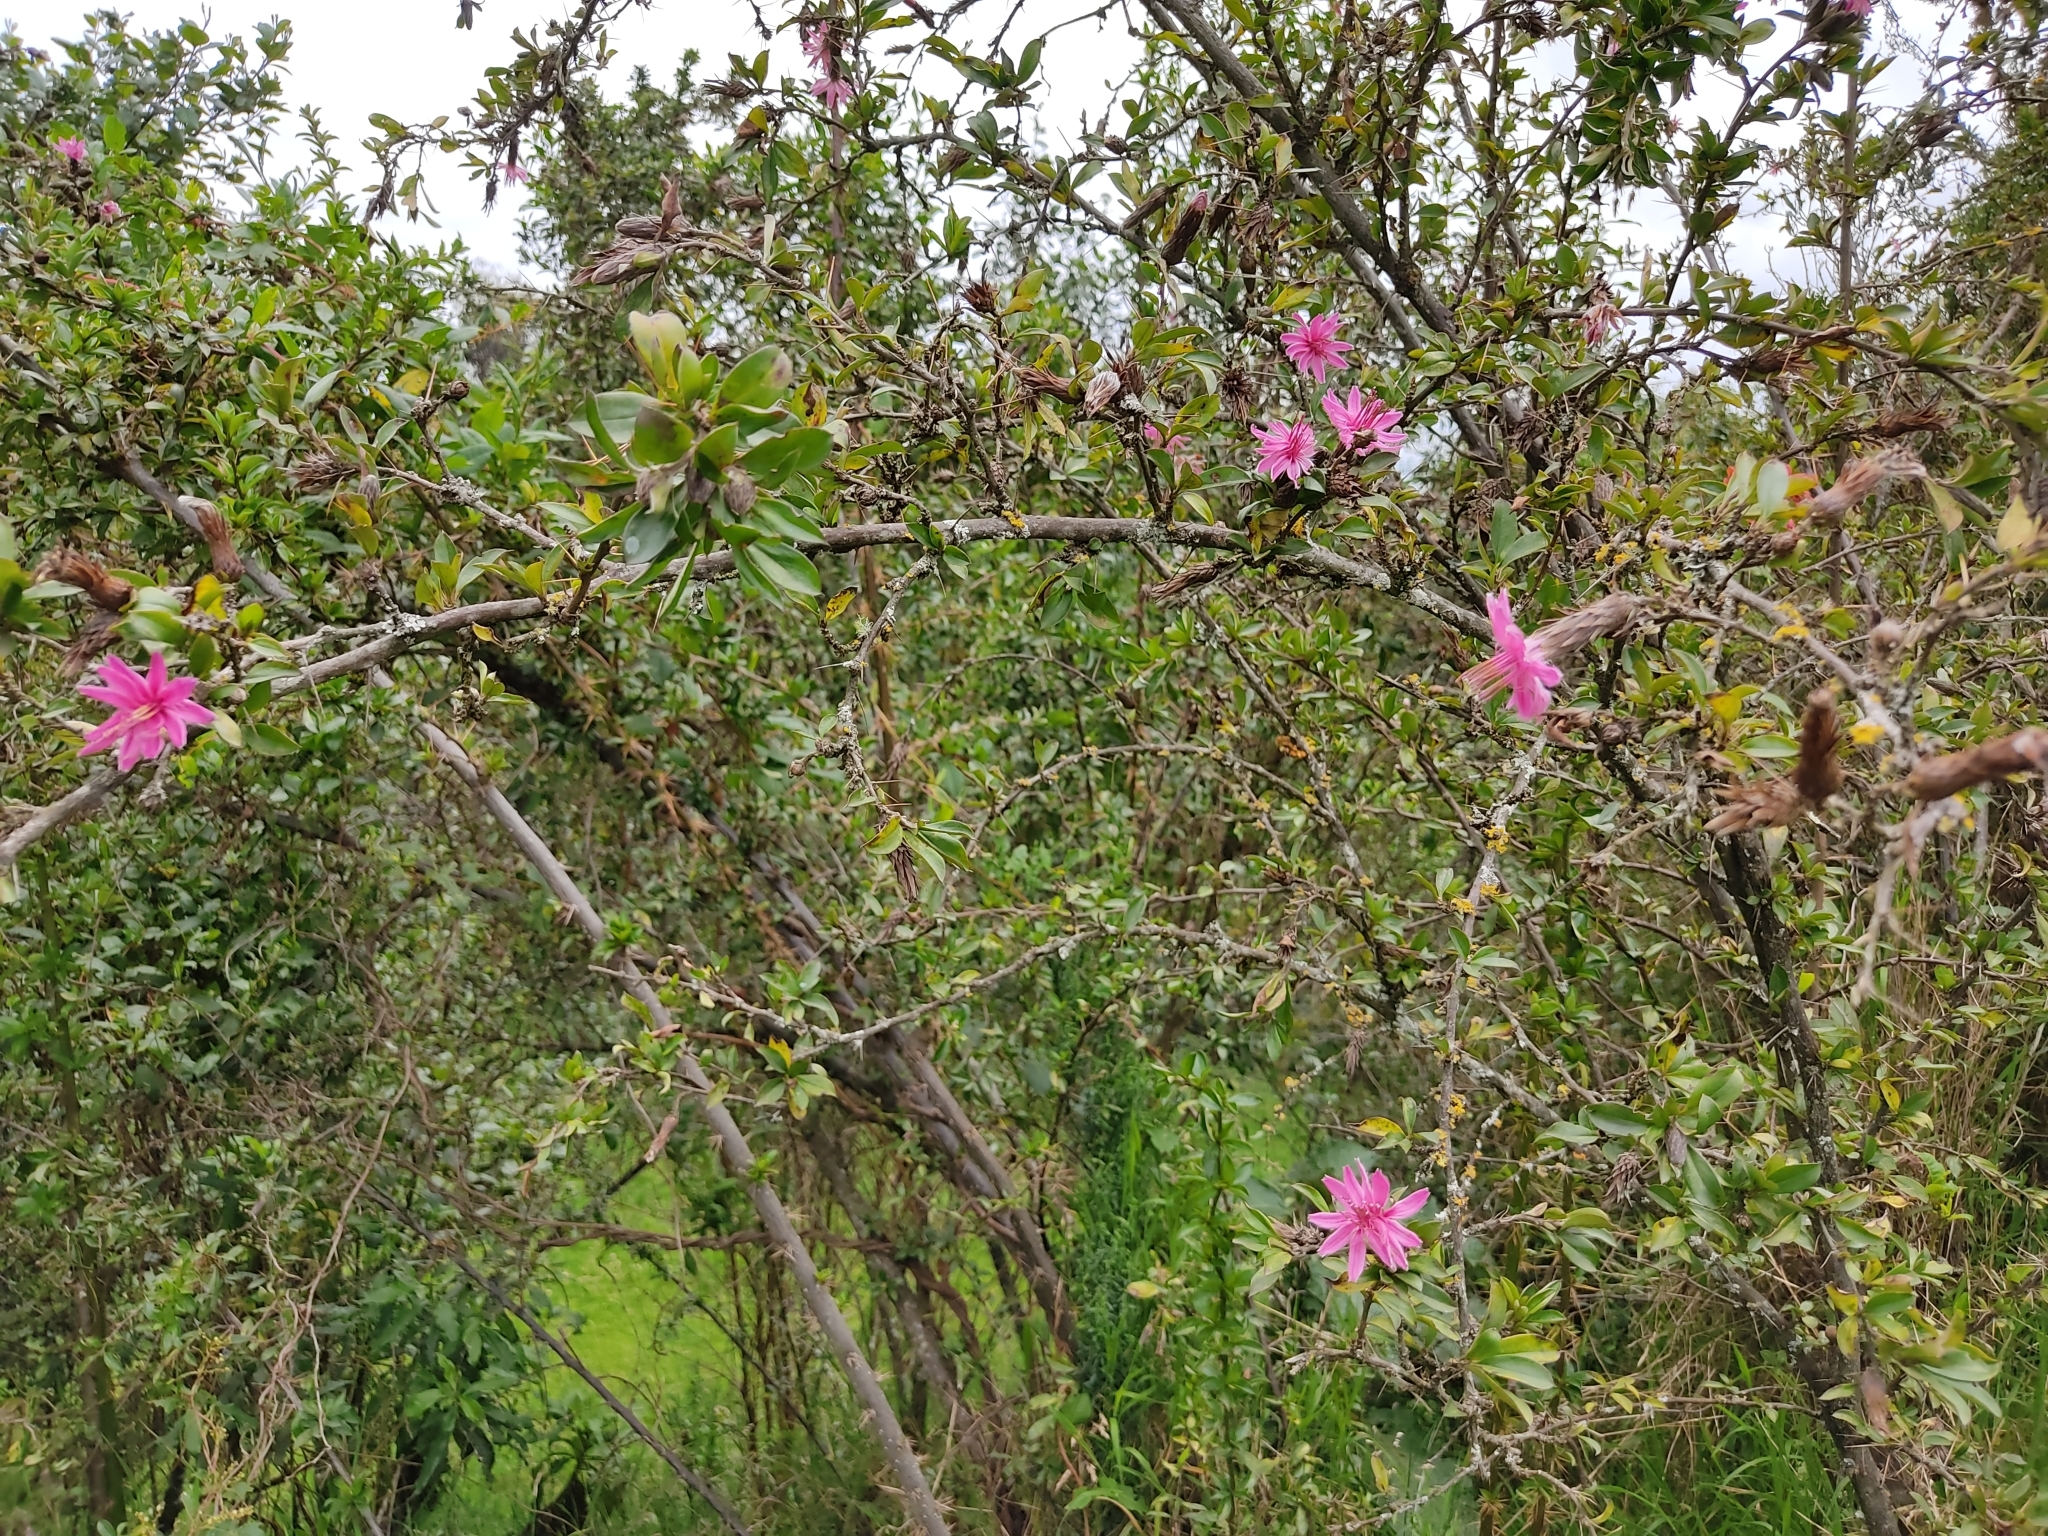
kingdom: Plantae
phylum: Tracheophyta
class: Magnoliopsida
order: Asterales
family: Asteraceae
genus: Barnadesia
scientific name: Barnadesia arborea
